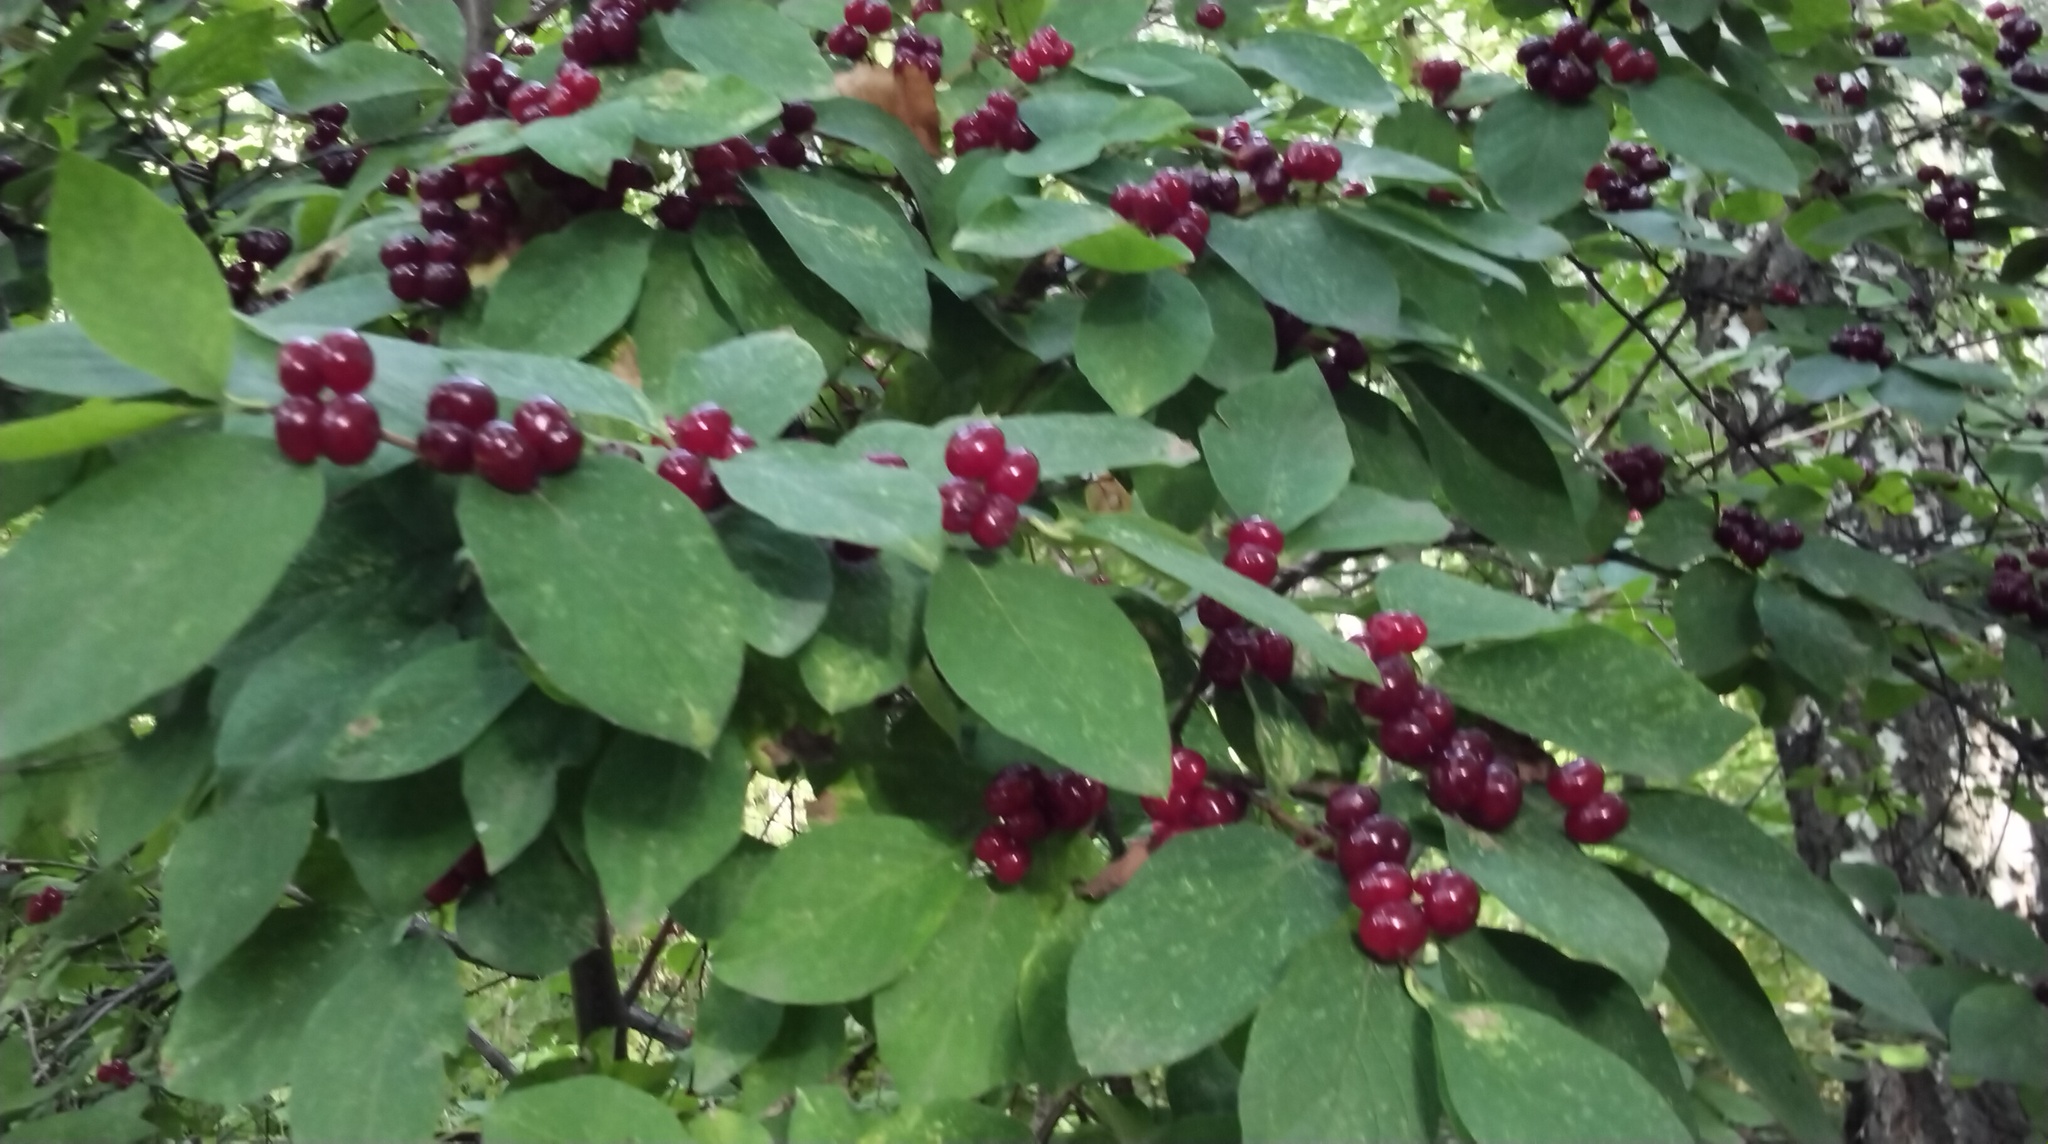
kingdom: Plantae
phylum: Tracheophyta
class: Magnoliopsida
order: Dipsacales
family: Caprifoliaceae
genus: Lonicera
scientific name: Lonicera xylosteum
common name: Fly honeysuckle
